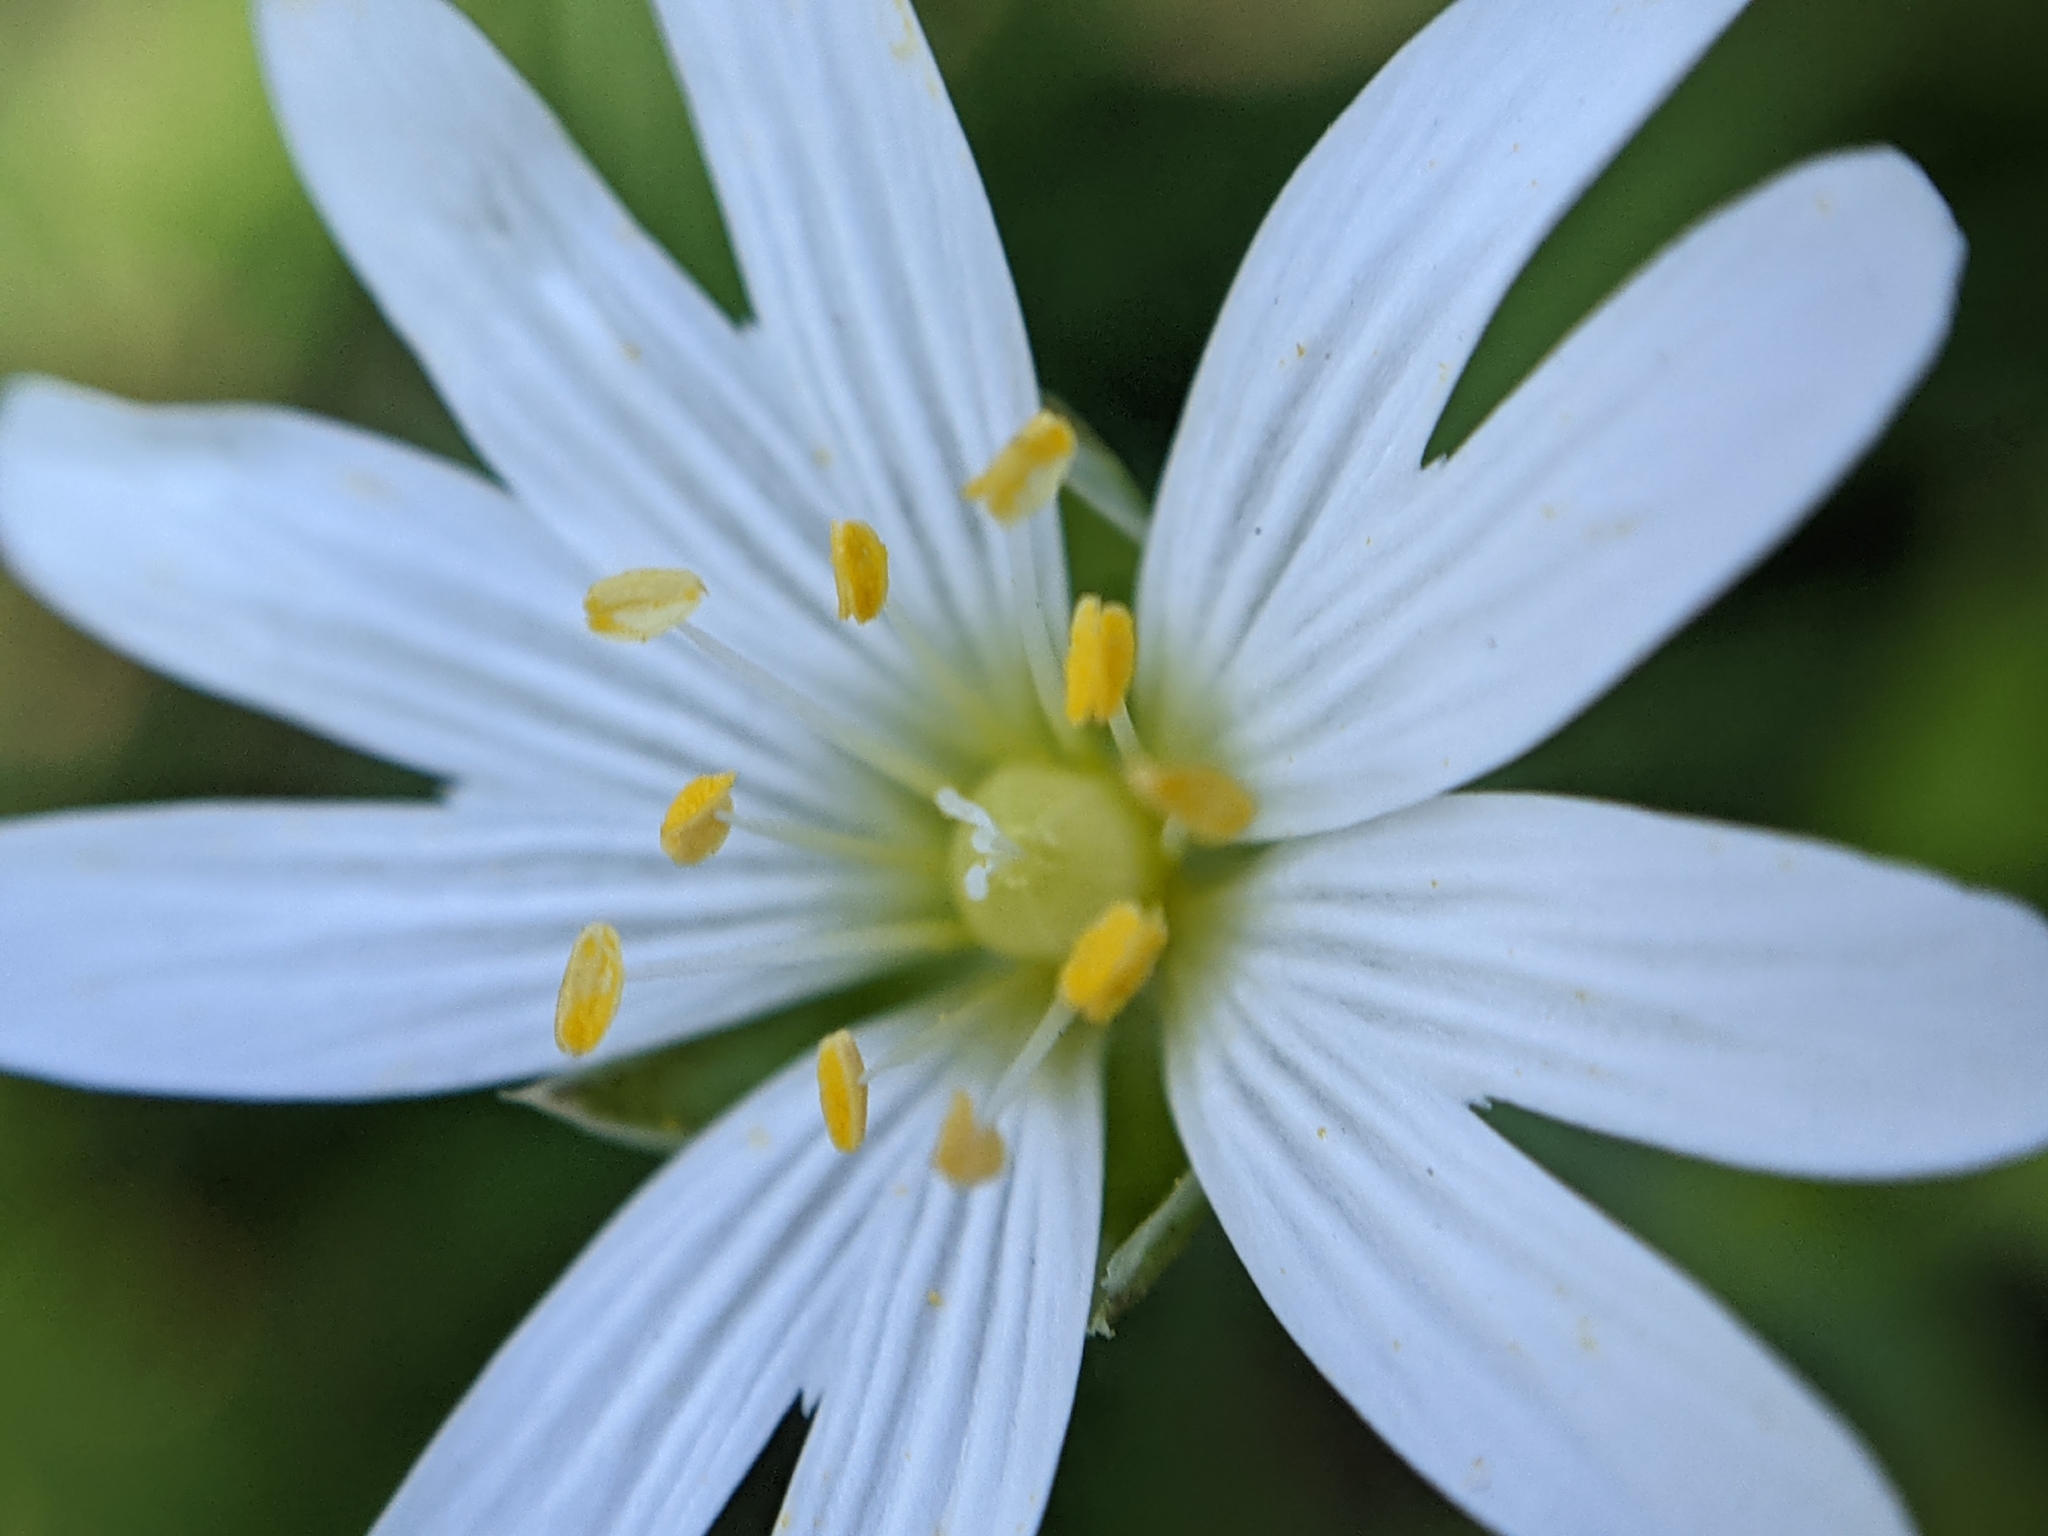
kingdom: Plantae
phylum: Tracheophyta
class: Magnoliopsida
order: Caryophyllales
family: Caryophyllaceae
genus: Rabelera
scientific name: Rabelera holostea
